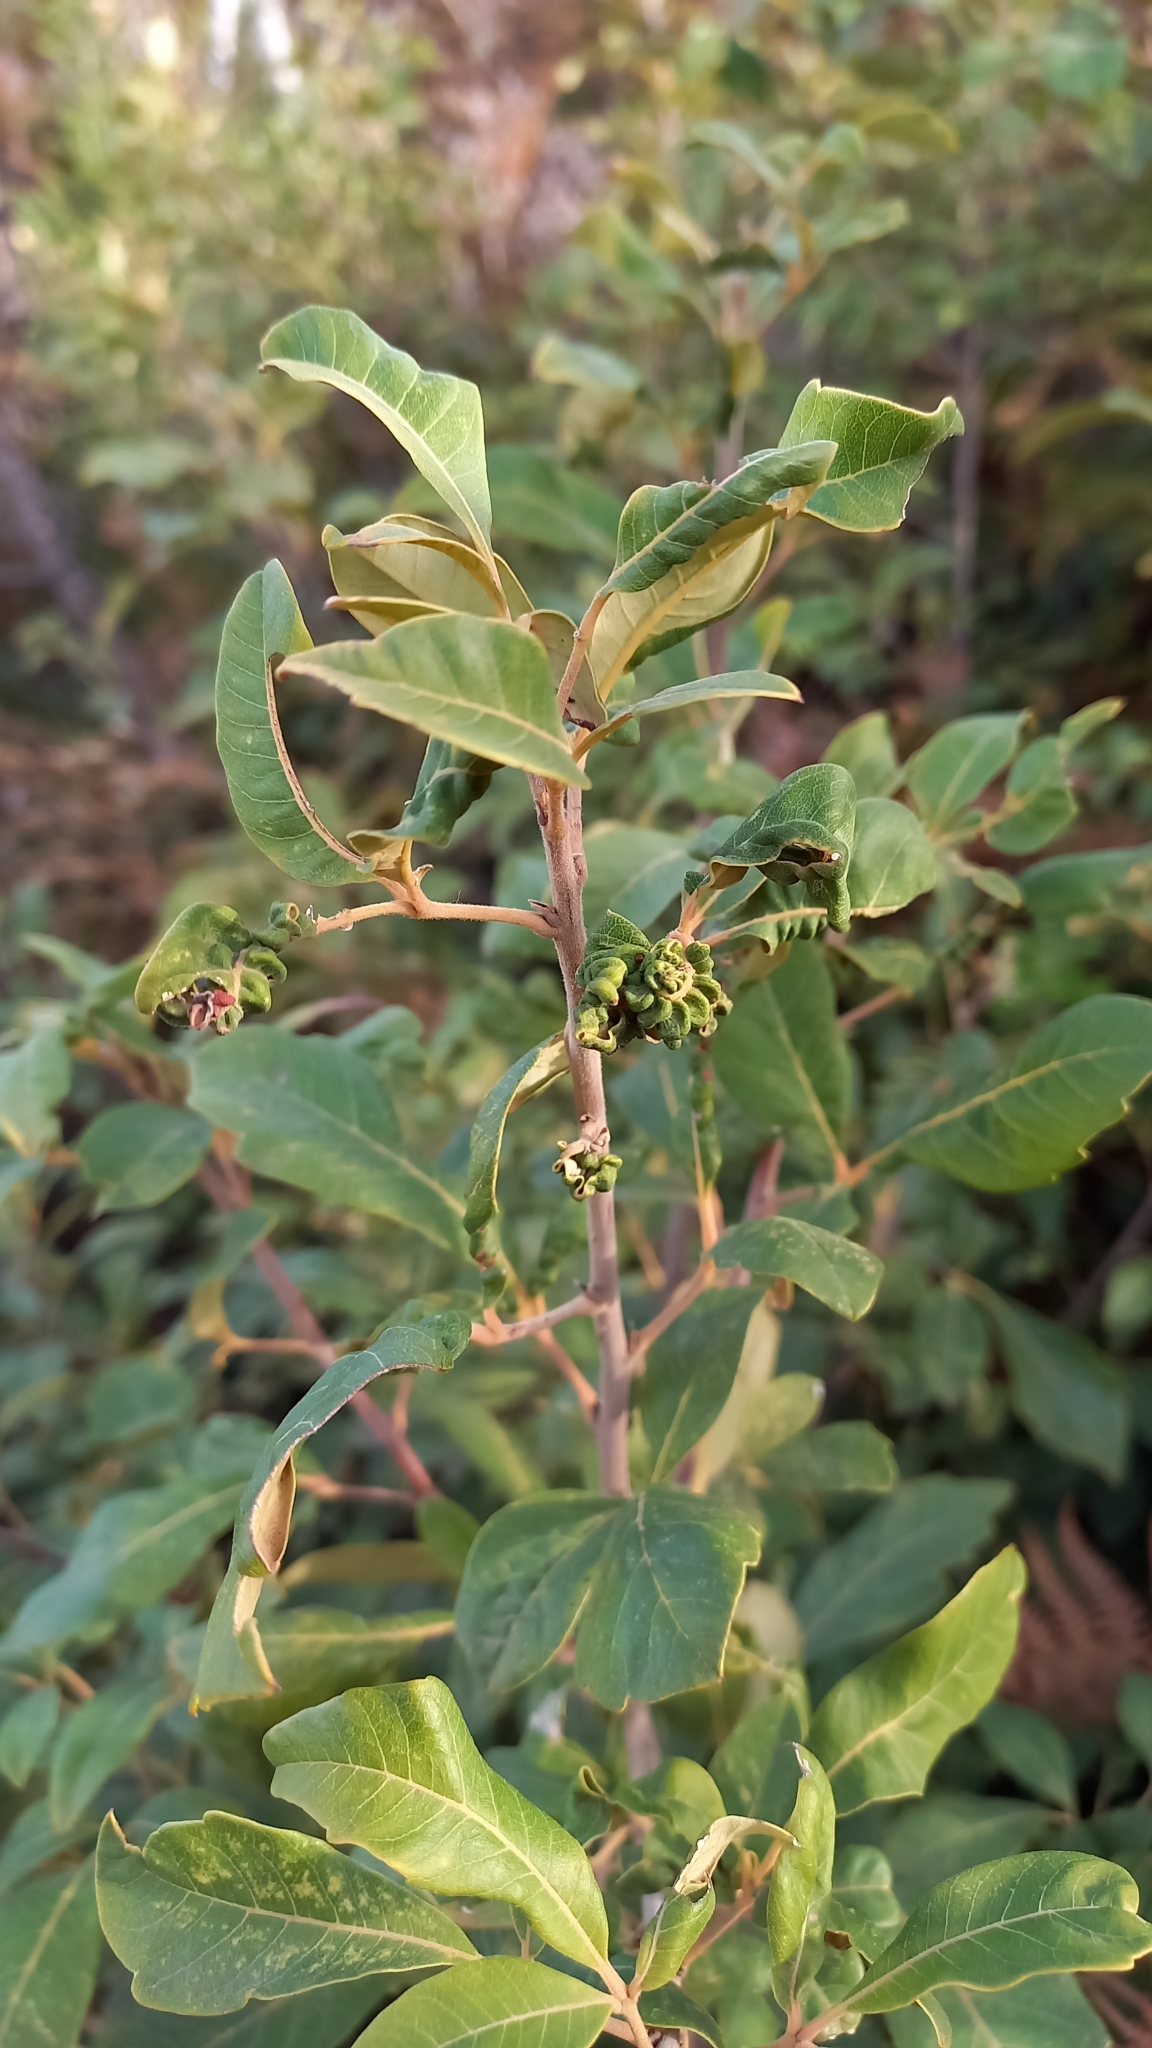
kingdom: Plantae
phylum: Tracheophyta
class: Magnoliopsida
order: Sapindales
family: Anacardiaceae
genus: Searsia
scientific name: Searsia tomentosa
